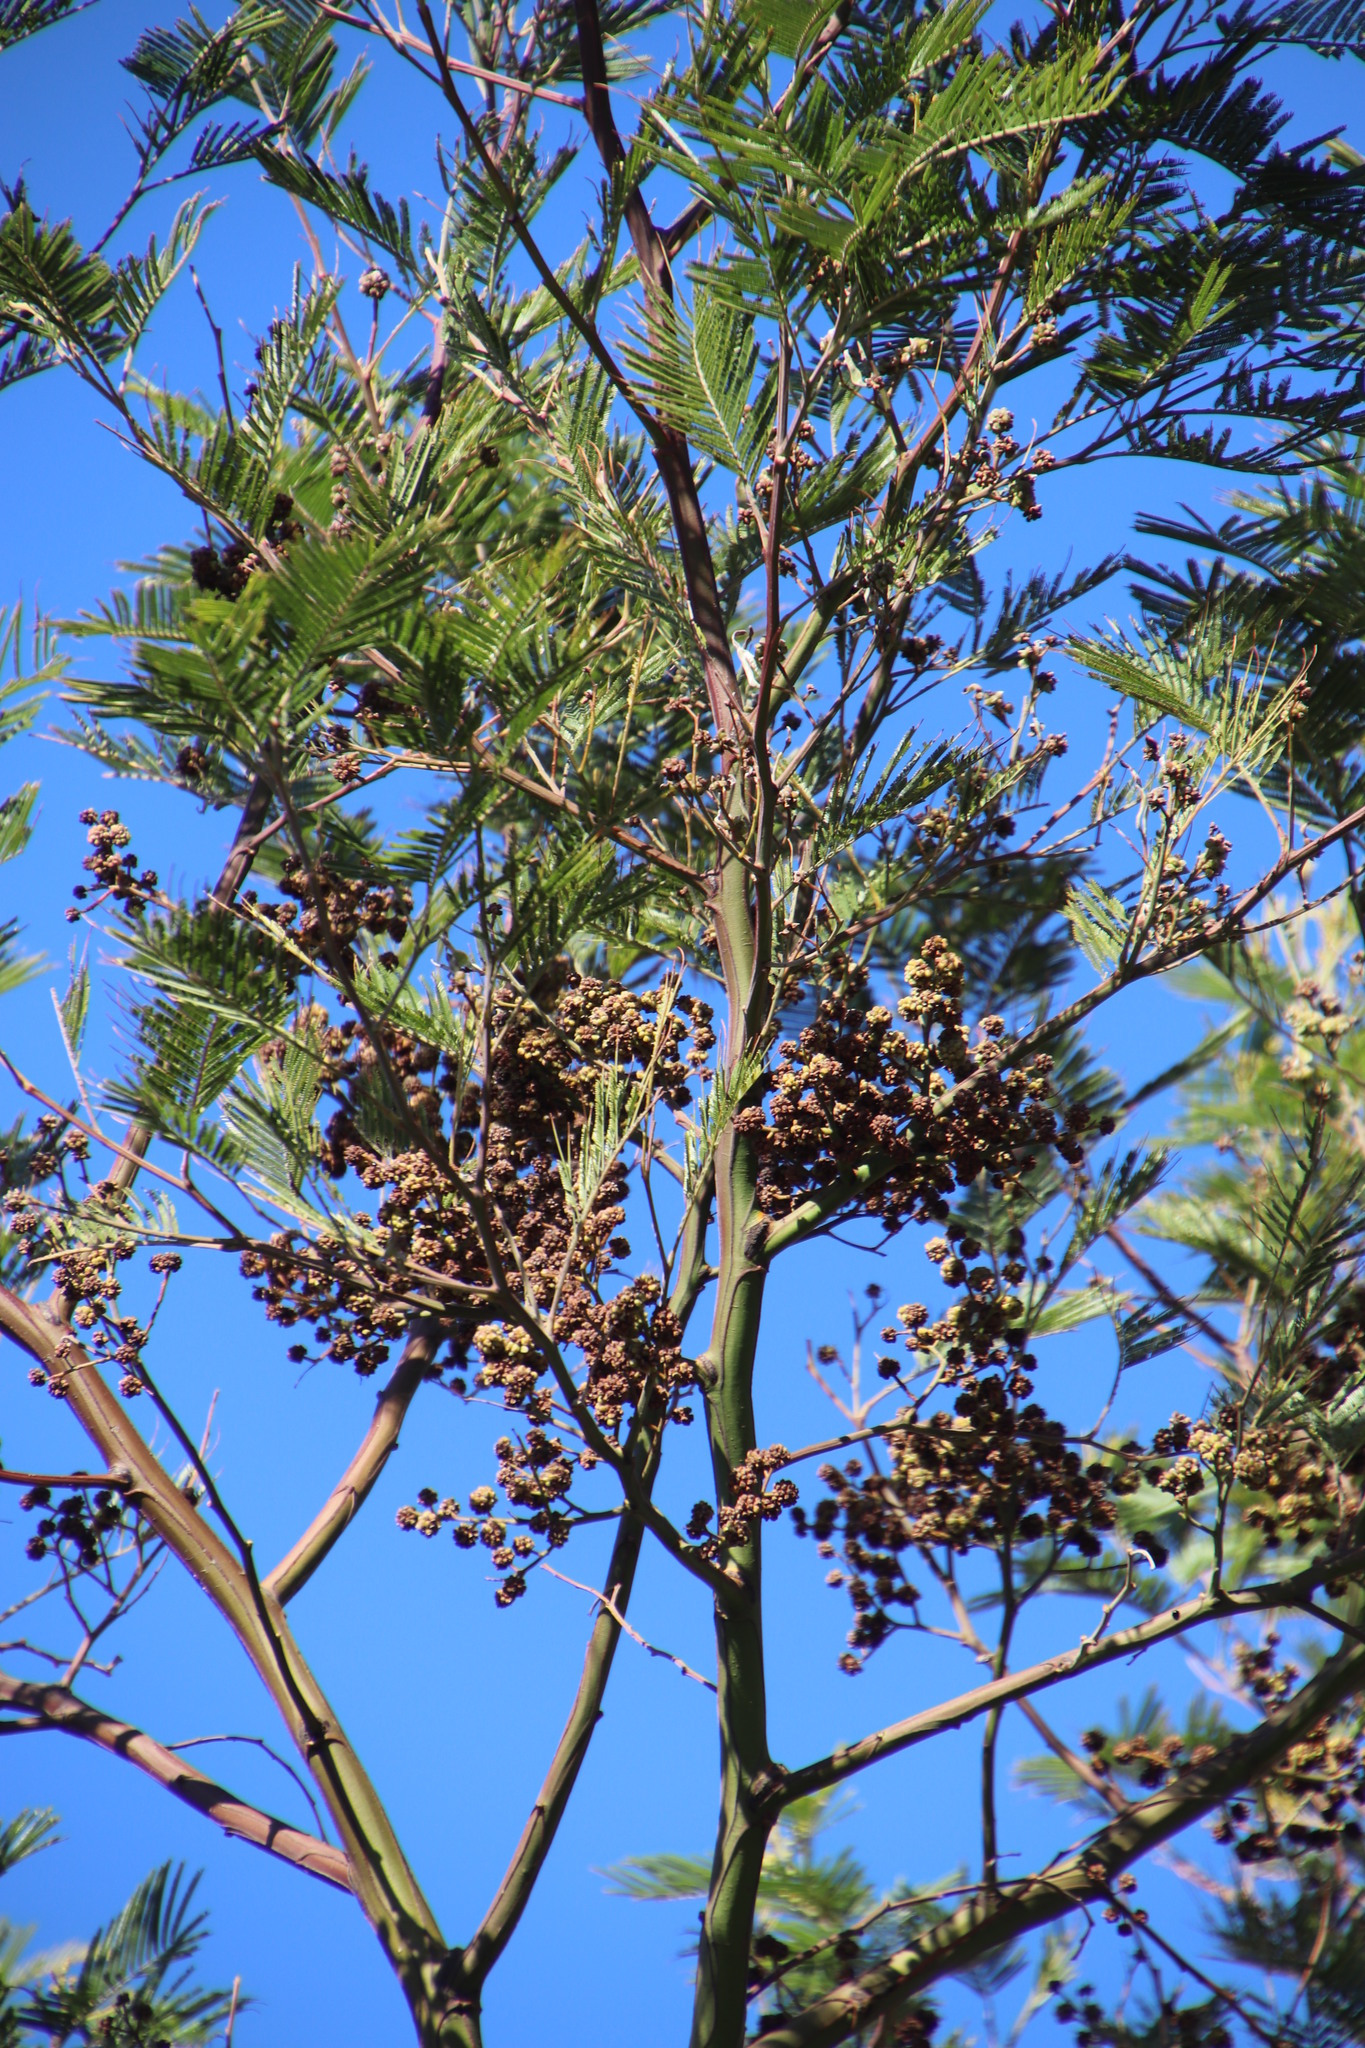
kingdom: Plantae
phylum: Tracheophyta
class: Magnoliopsida
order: Fabales
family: Fabaceae
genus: Acacia
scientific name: Acacia mearnsii
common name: Black wattle
